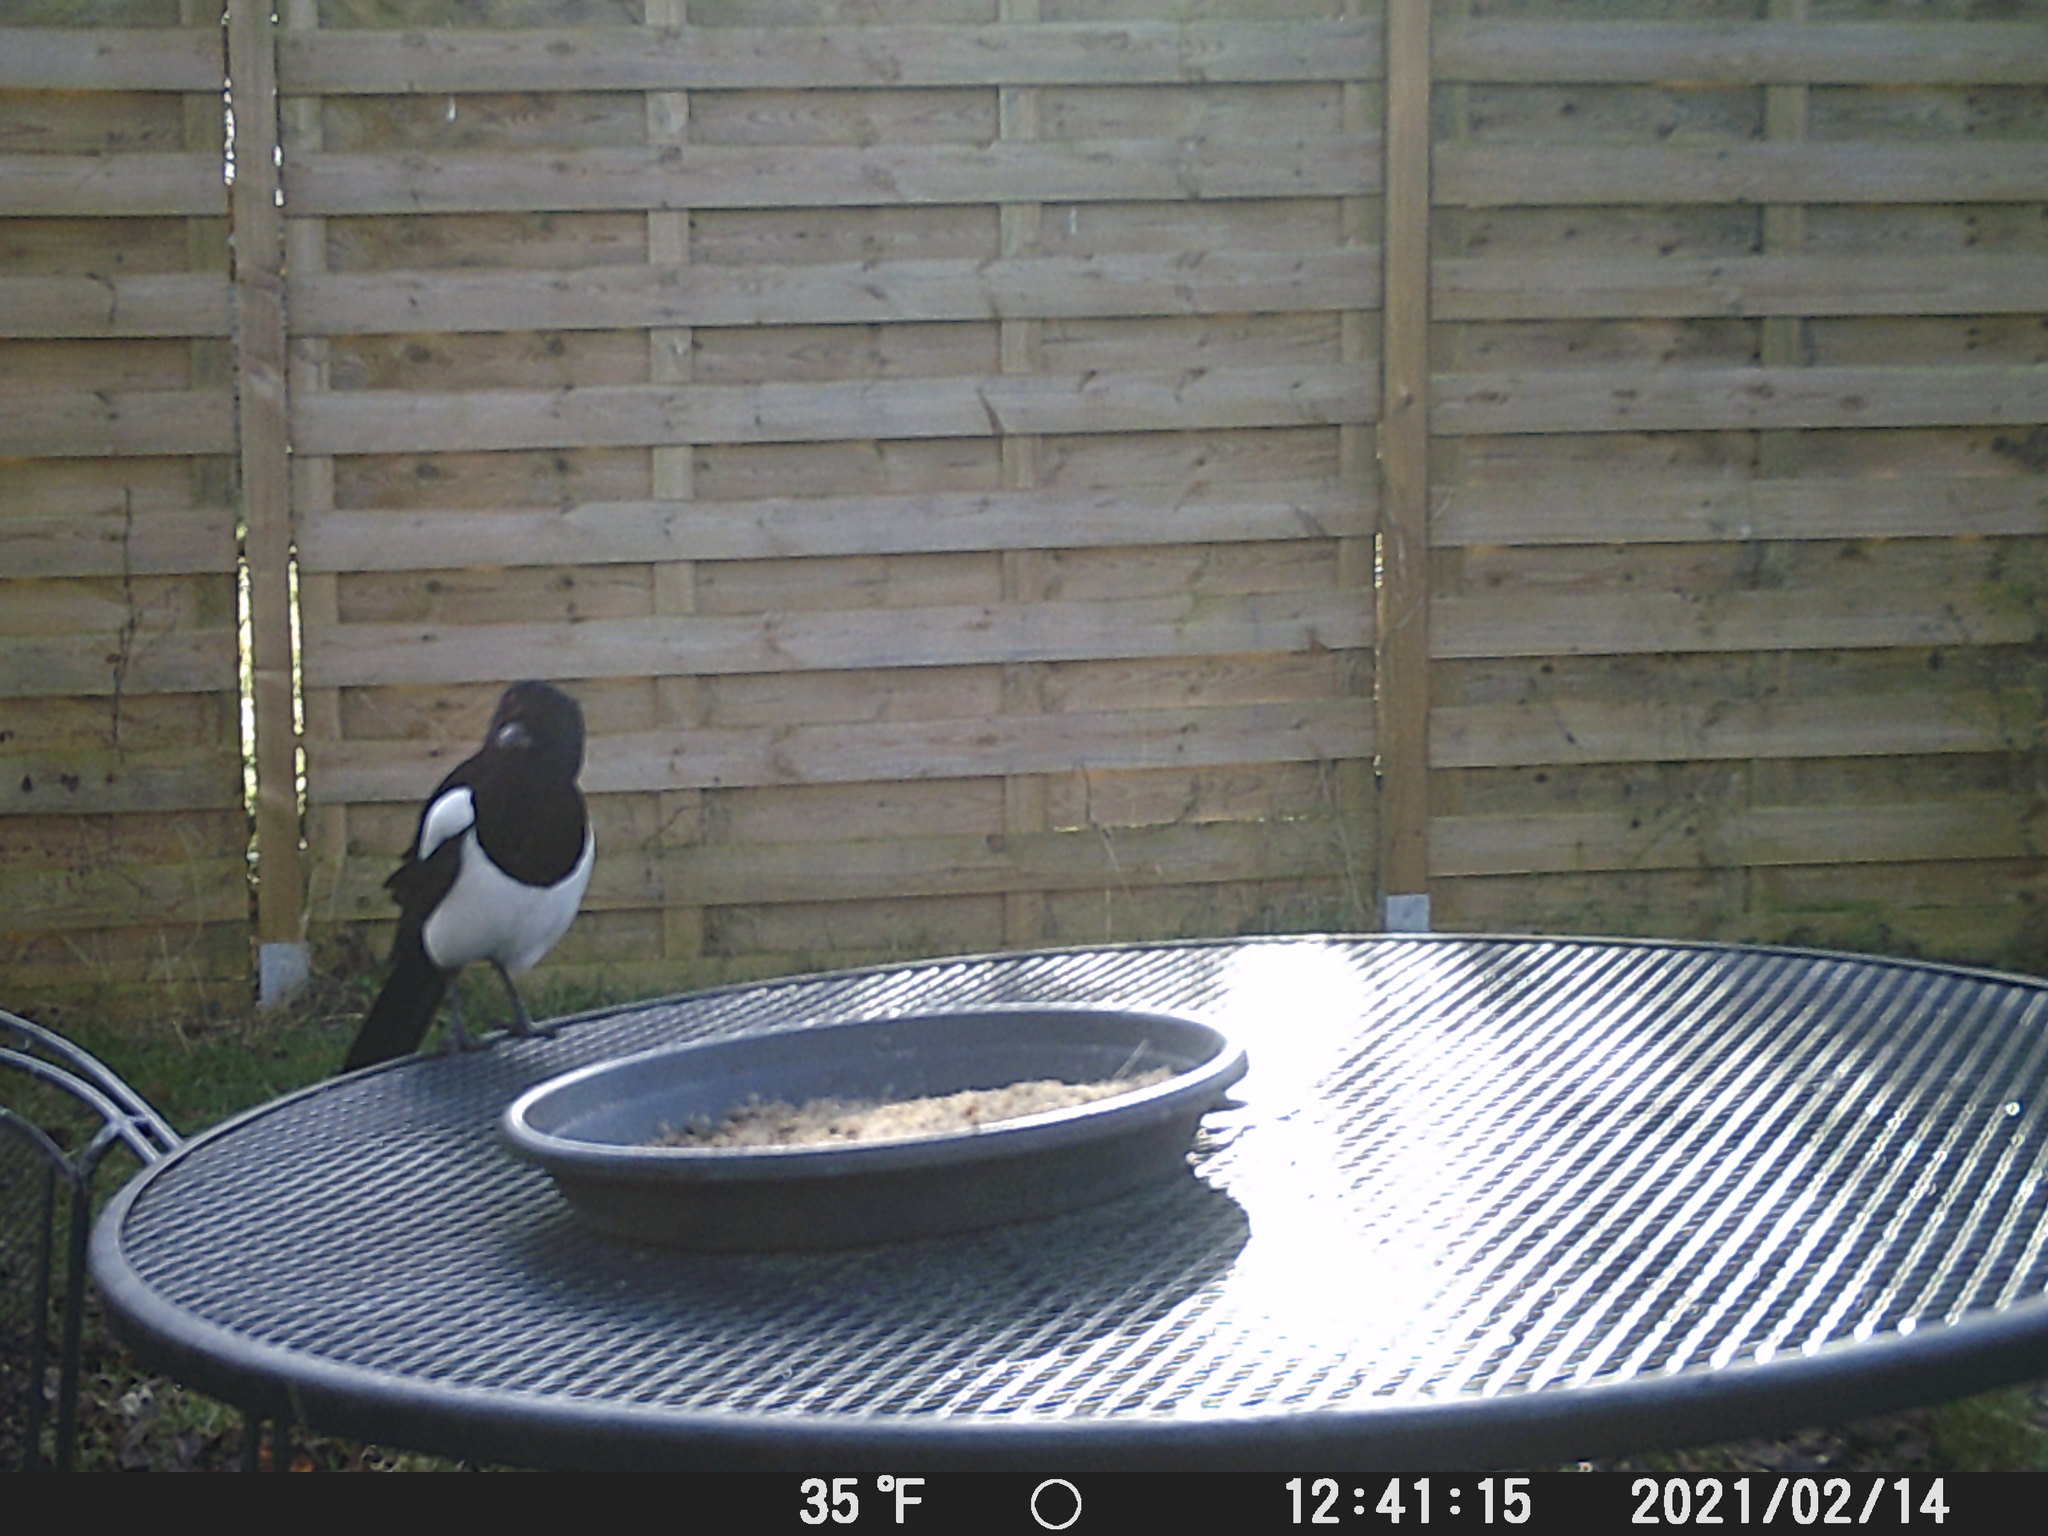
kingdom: Animalia
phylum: Chordata
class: Aves
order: Passeriformes
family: Corvidae
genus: Pica
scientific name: Pica pica
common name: Eurasian magpie
